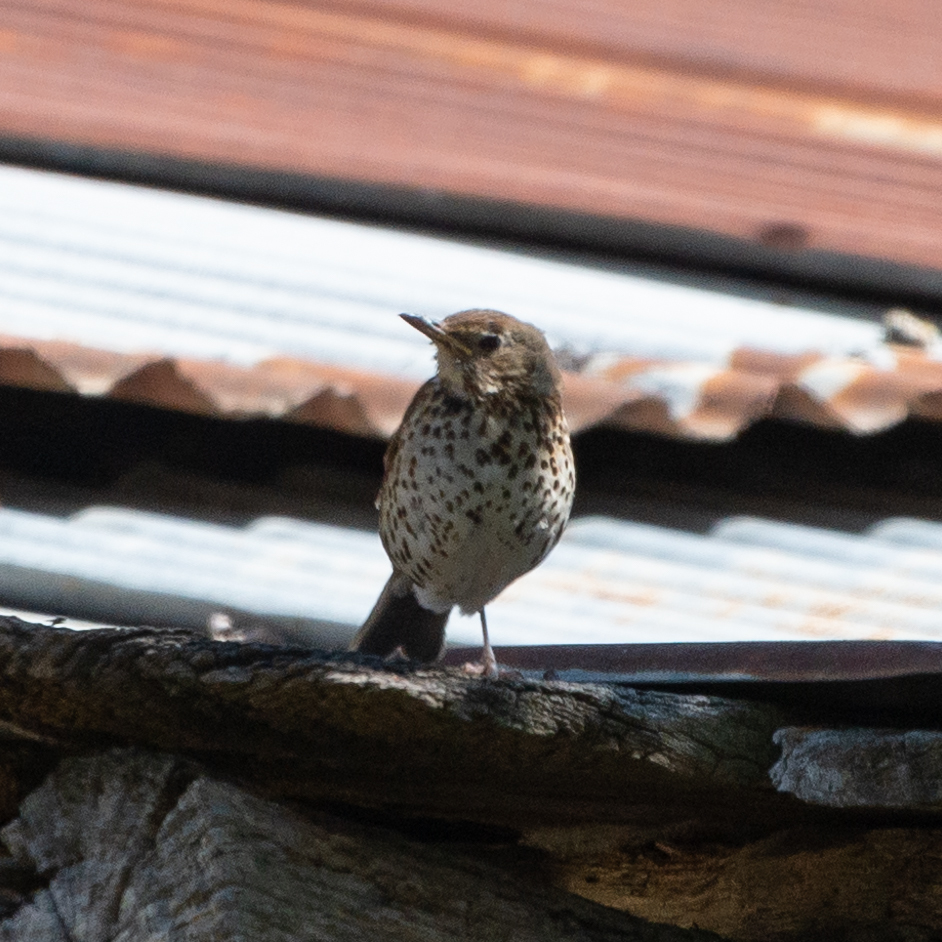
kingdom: Animalia
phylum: Chordata
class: Aves
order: Passeriformes
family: Turdidae
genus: Turdus
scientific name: Turdus philomelos
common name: Song thrush
